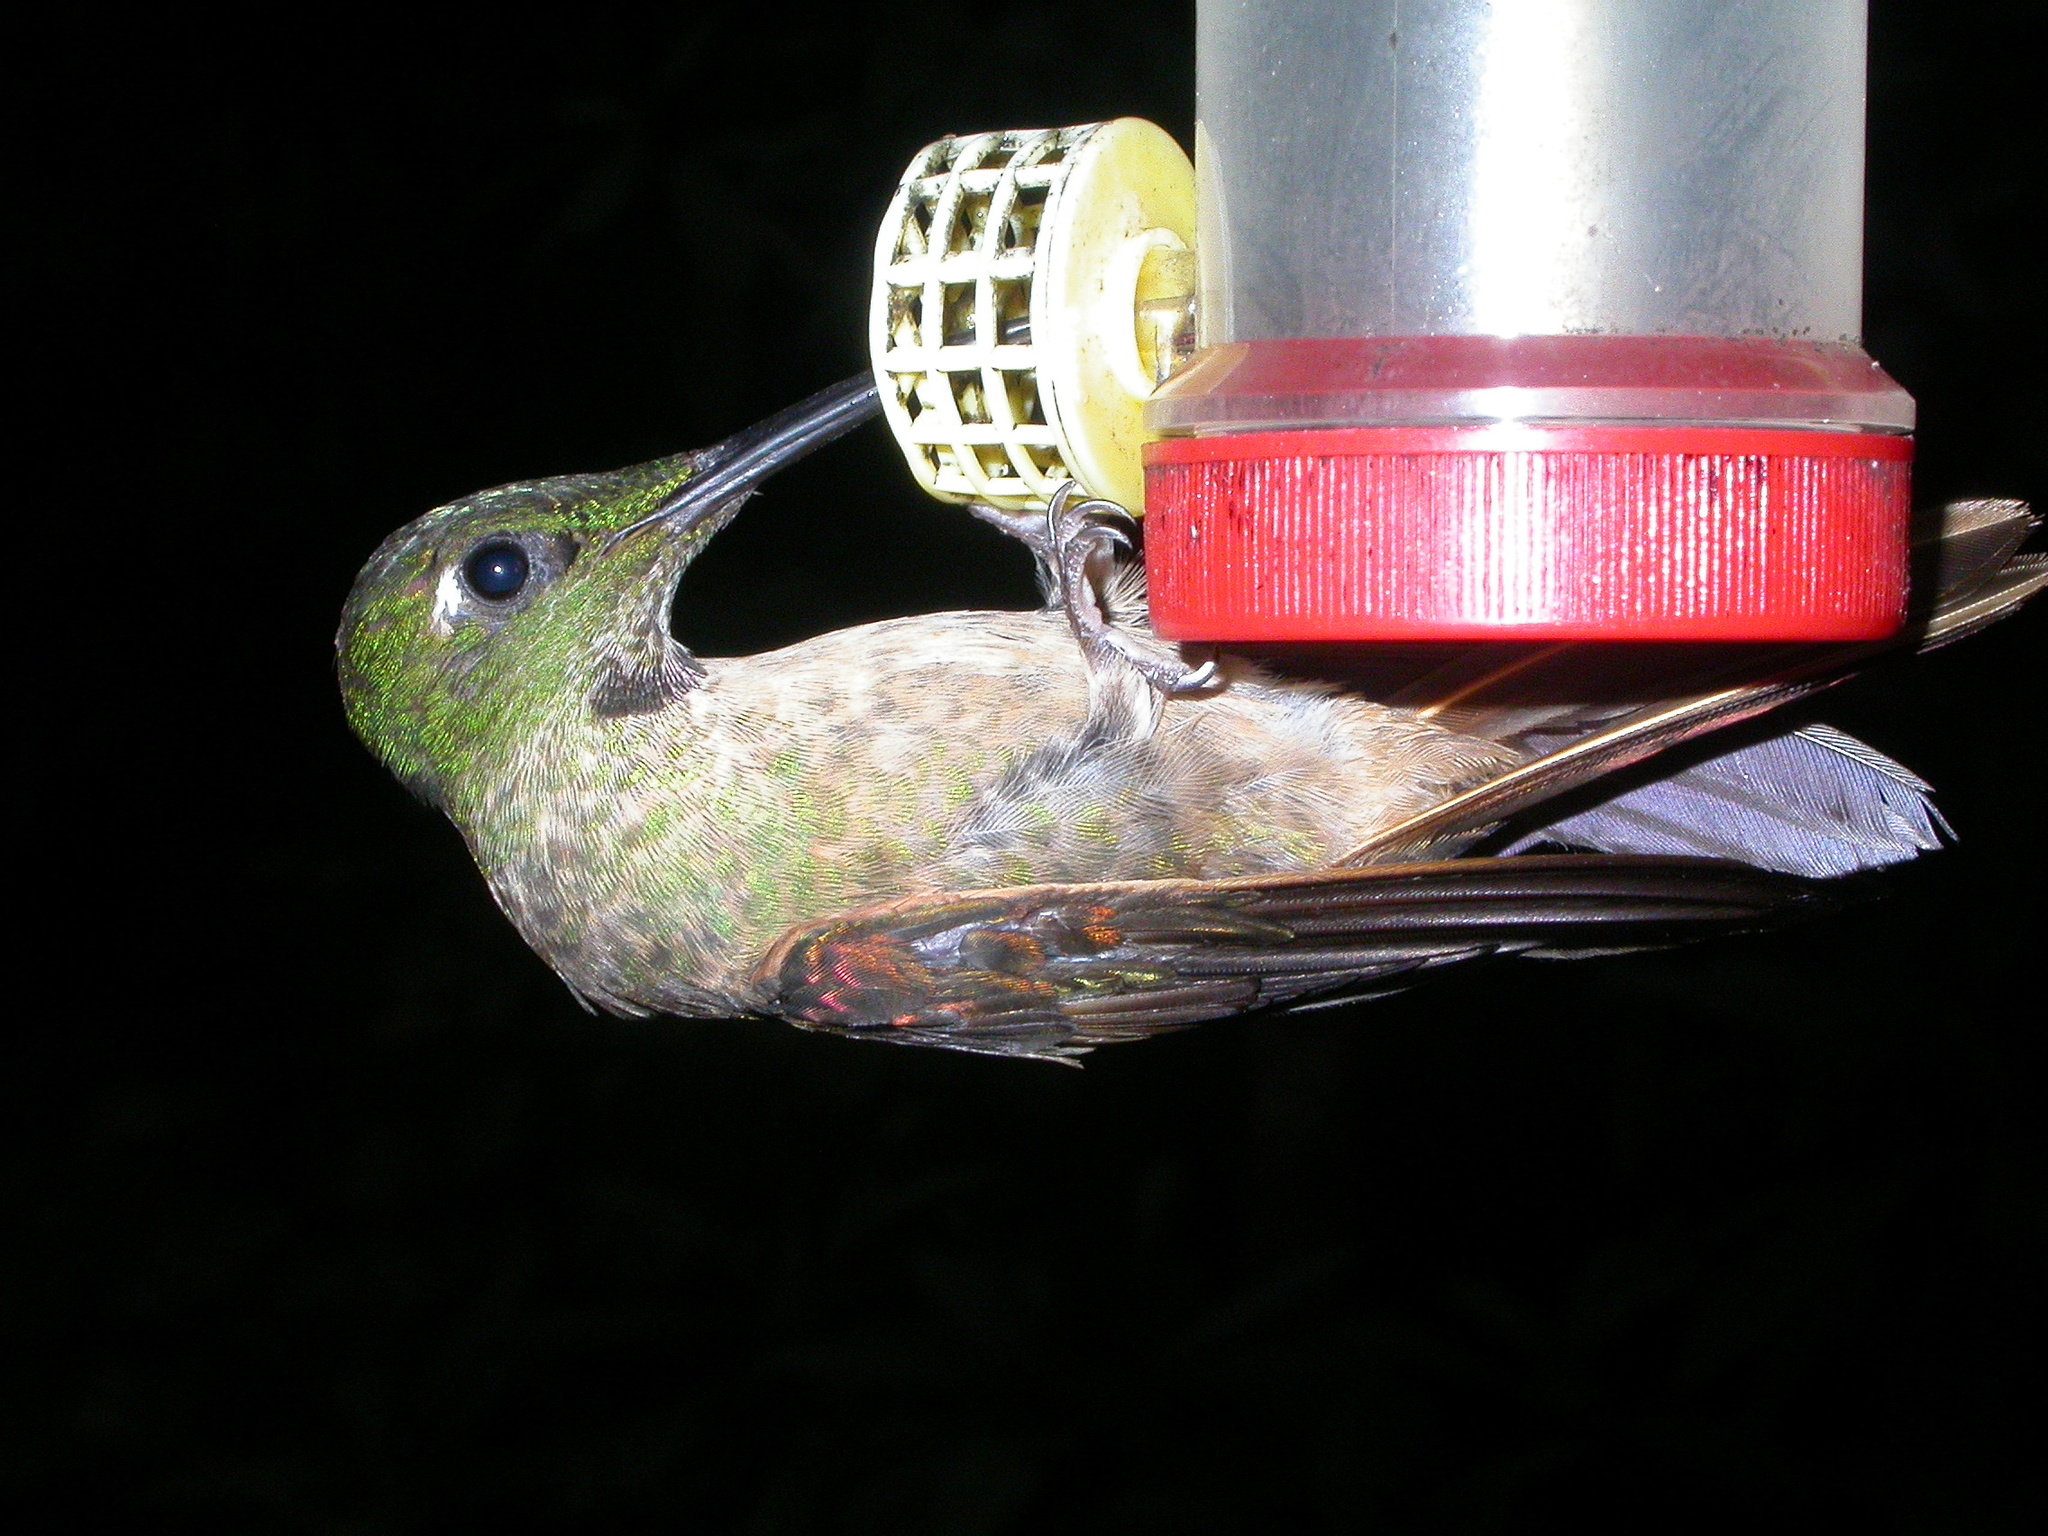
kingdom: Animalia
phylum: Chordata
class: Aves
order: Apodiformes
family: Trochilidae
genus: Heliodoxa
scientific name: Heliodoxa rubinoides
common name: Fawn-breasted brilliant
